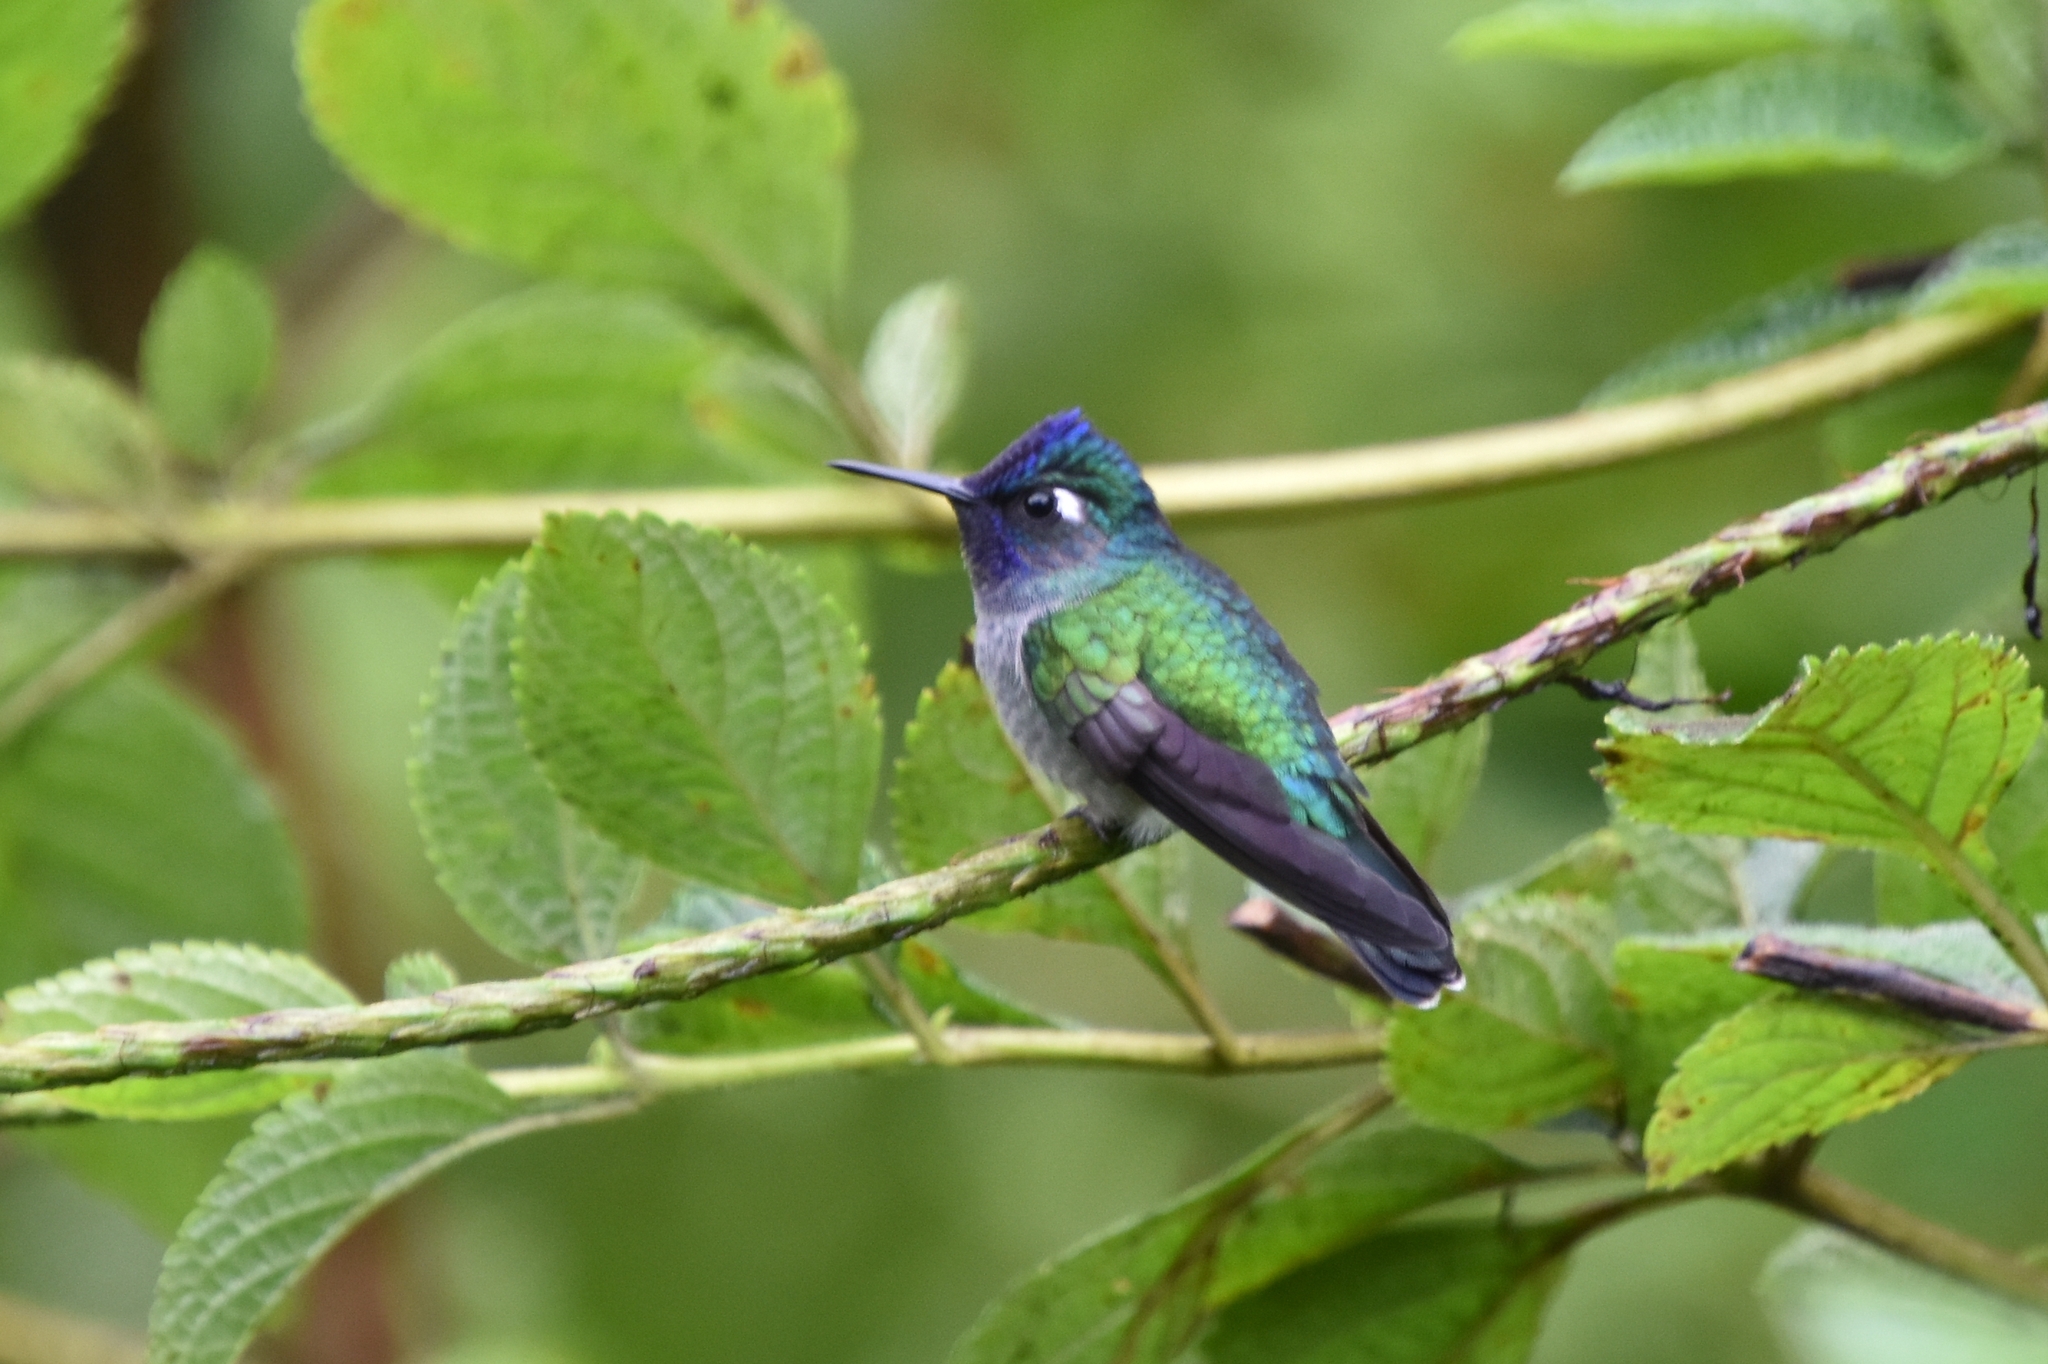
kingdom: Animalia
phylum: Chordata
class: Aves
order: Apodiformes
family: Trochilidae
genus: Klais
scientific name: Klais guimeti
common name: Violet-headed hummingbird
